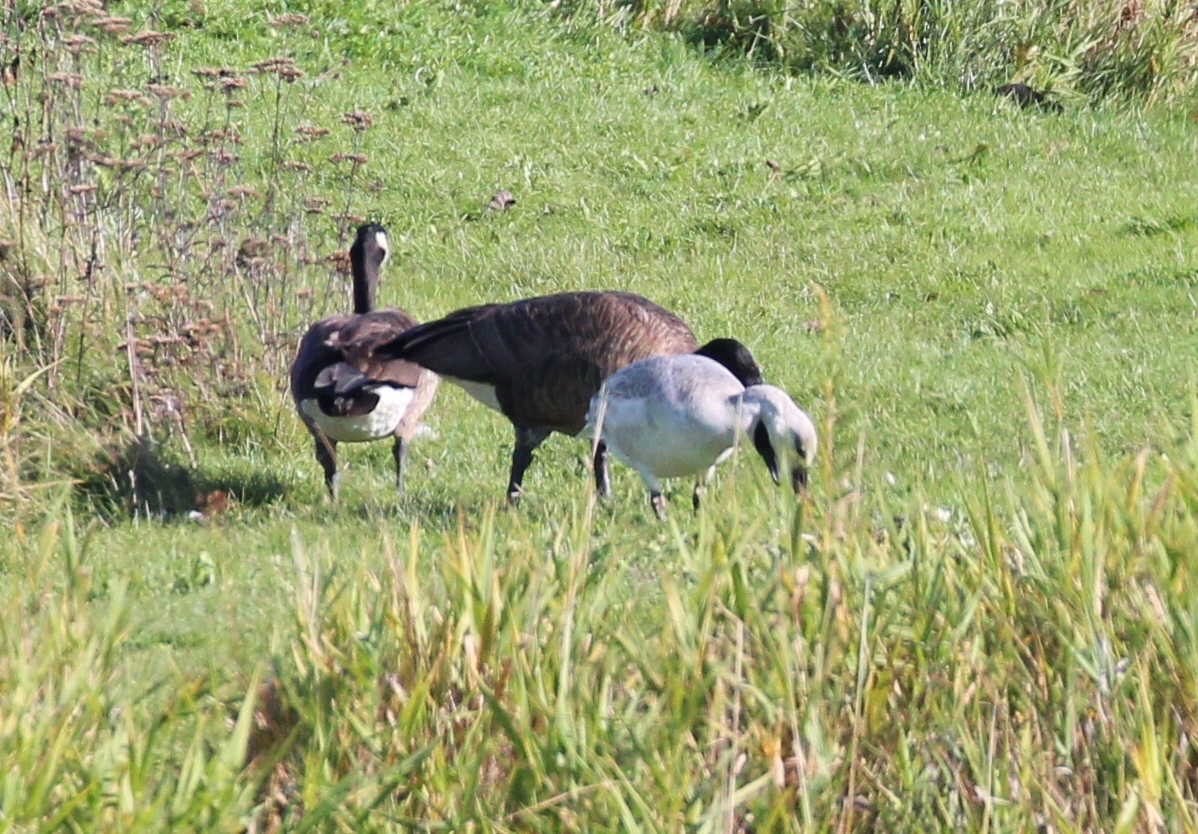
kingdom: Animalia
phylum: Chordata
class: Aves
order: Anseriformes
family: Anatidae
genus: Anser
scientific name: Anser caerulescens
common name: Snow goose
